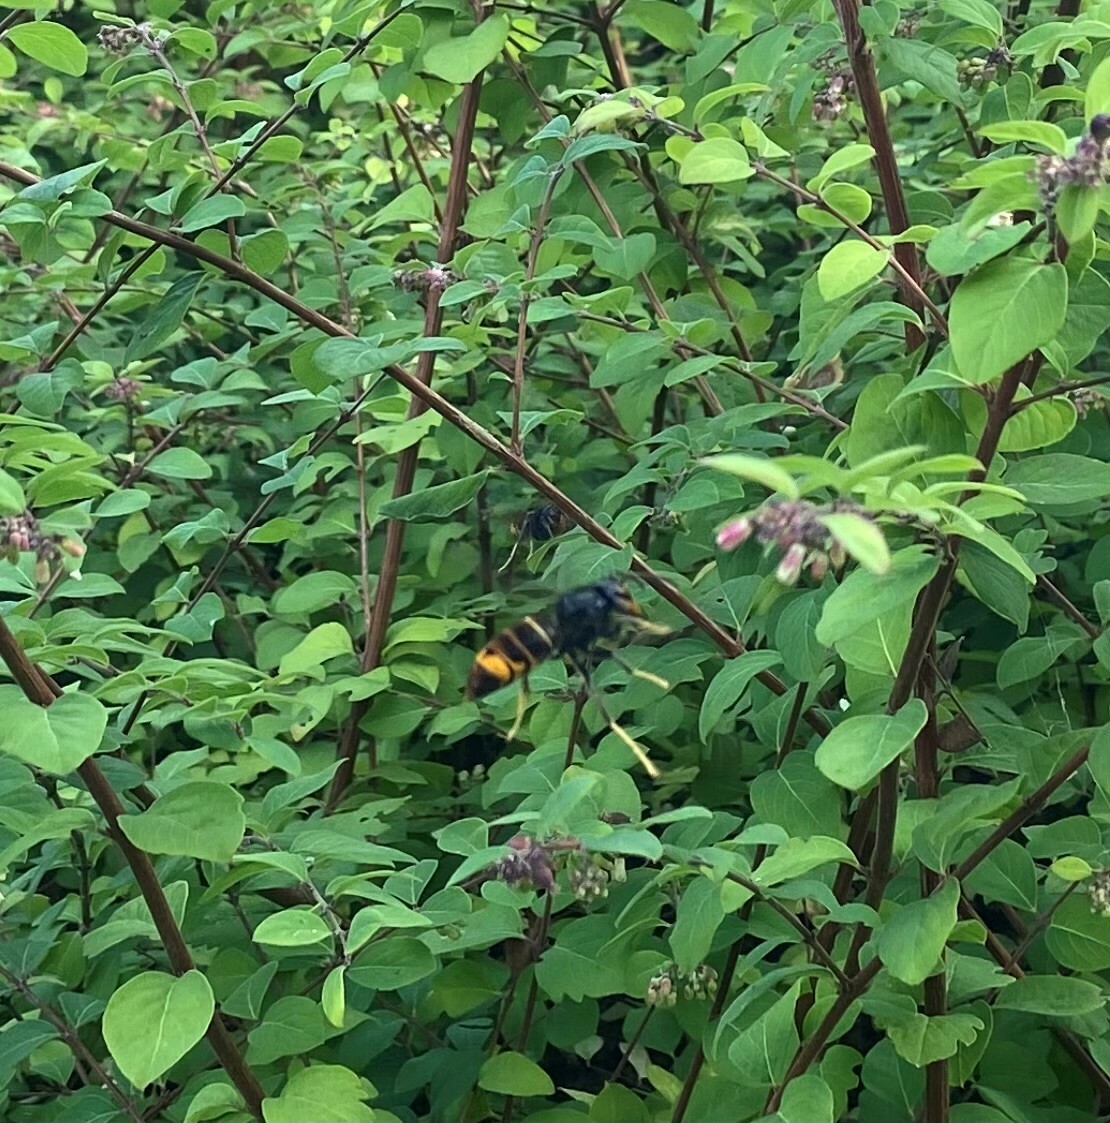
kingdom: Animalia
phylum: Arthropoda
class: Insecta
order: Hymenoptera
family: Vespidae
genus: Vespa
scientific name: Vespa velutina
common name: Asian hornet
